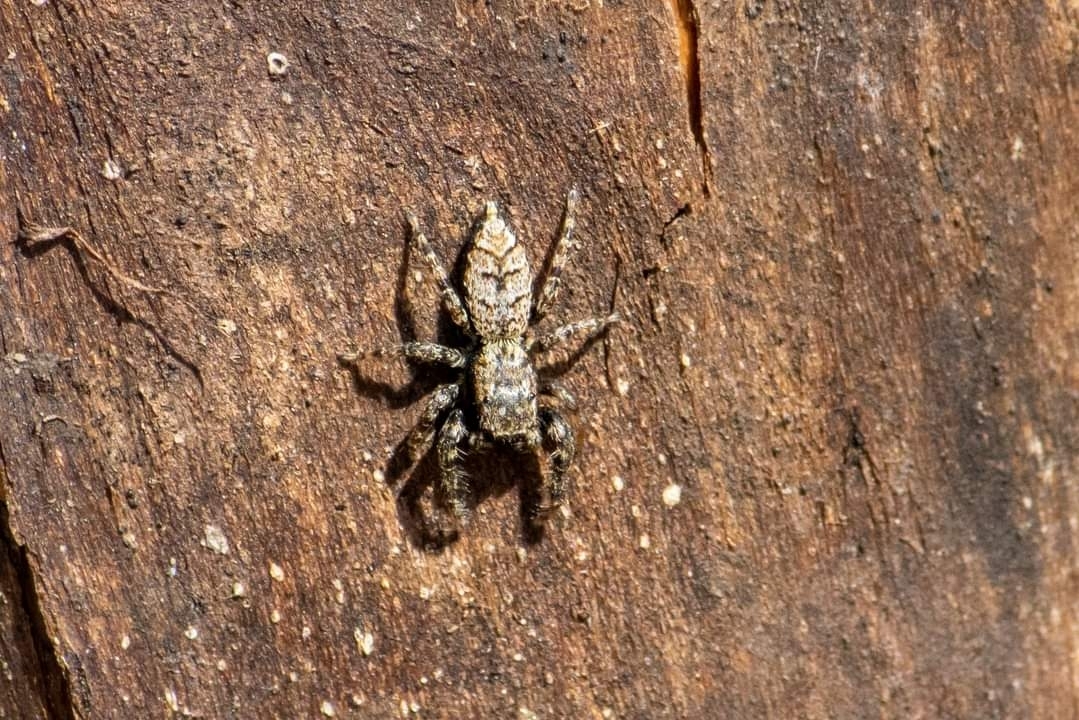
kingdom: Animalia
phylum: Arthropoda
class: Arachnida
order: Araneae
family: Salticidae
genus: Marpissa
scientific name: Marpissa muscosa
